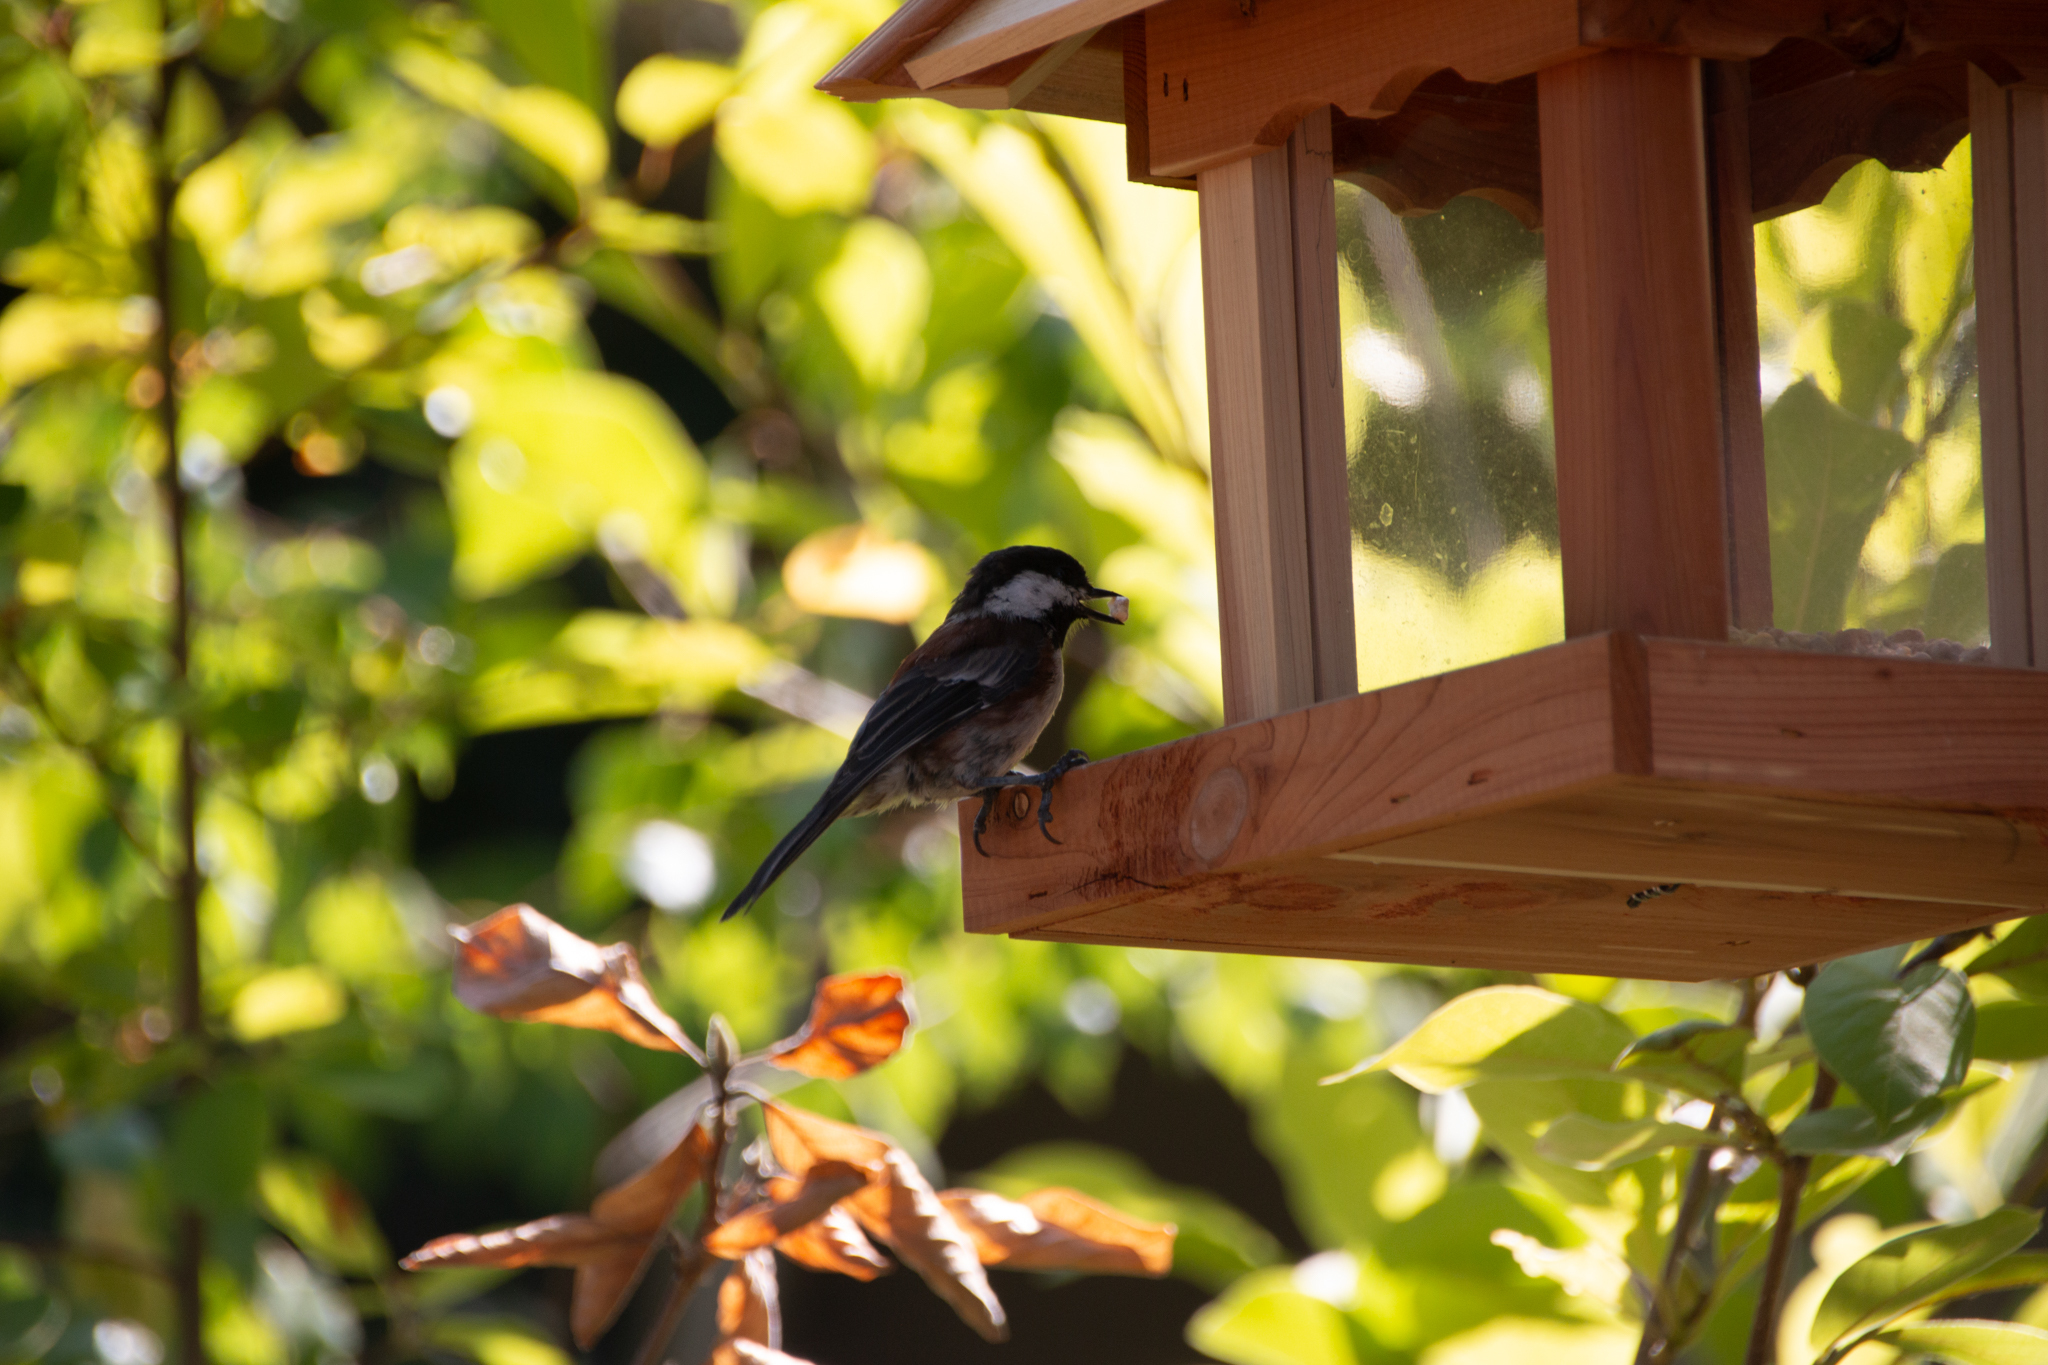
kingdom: Animalia
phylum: Chordata
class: Aves
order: Passeriformes
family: Paridae
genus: Poecile
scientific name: Poecile rufescens
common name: Chestnut-backed chickadee
